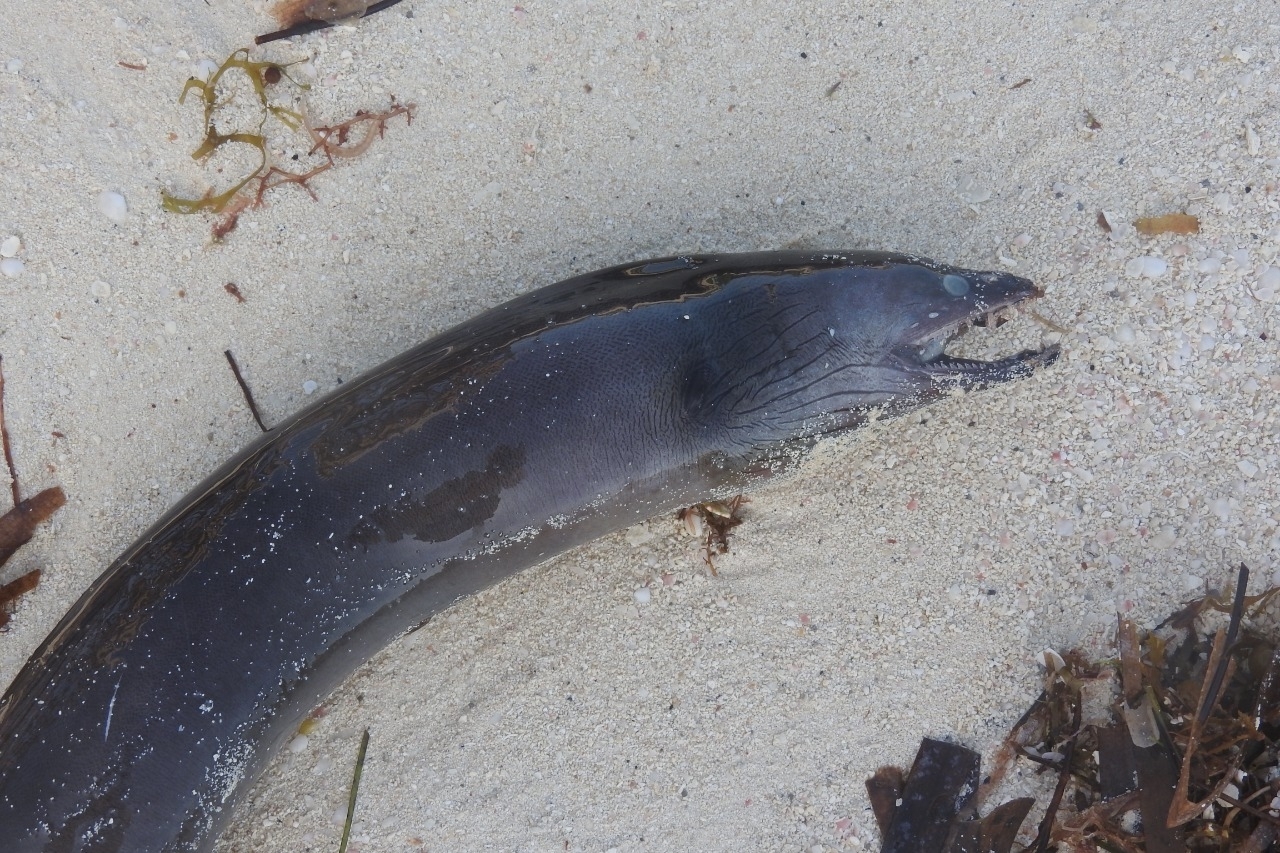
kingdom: Animalia
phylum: Chordata
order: Anguilliformes
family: Muraenidae
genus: Enchelycore
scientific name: Enchelycore nigricans
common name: Viper moray
